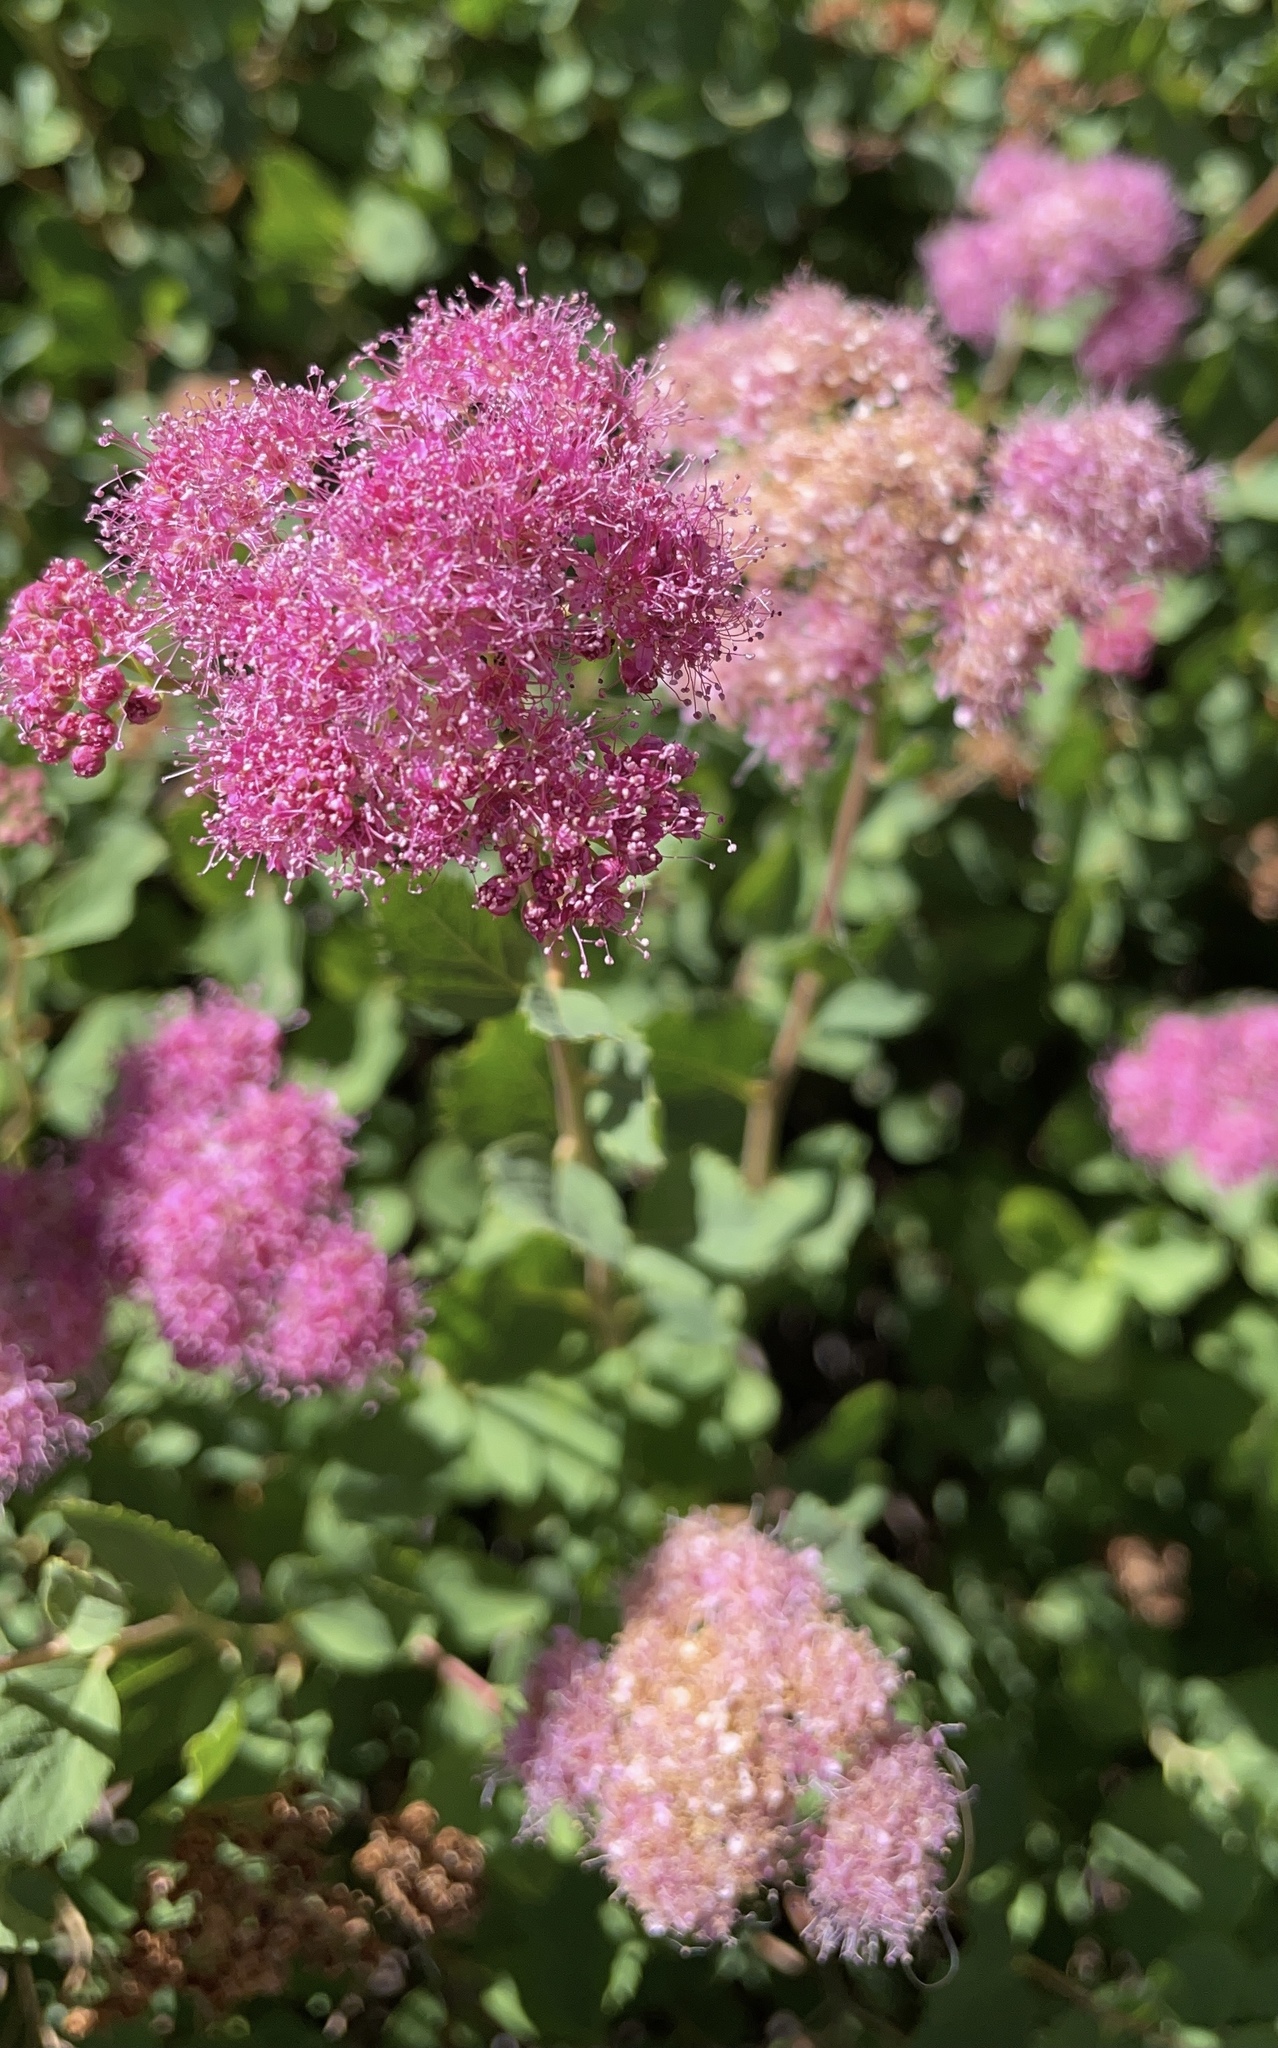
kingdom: Plantae
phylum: Tracheophyta
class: Magnoliopsida
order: Rosales
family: Rosaceae
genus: Spiraea
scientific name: Spiraea splendens
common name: Subalpine meadowsweet
